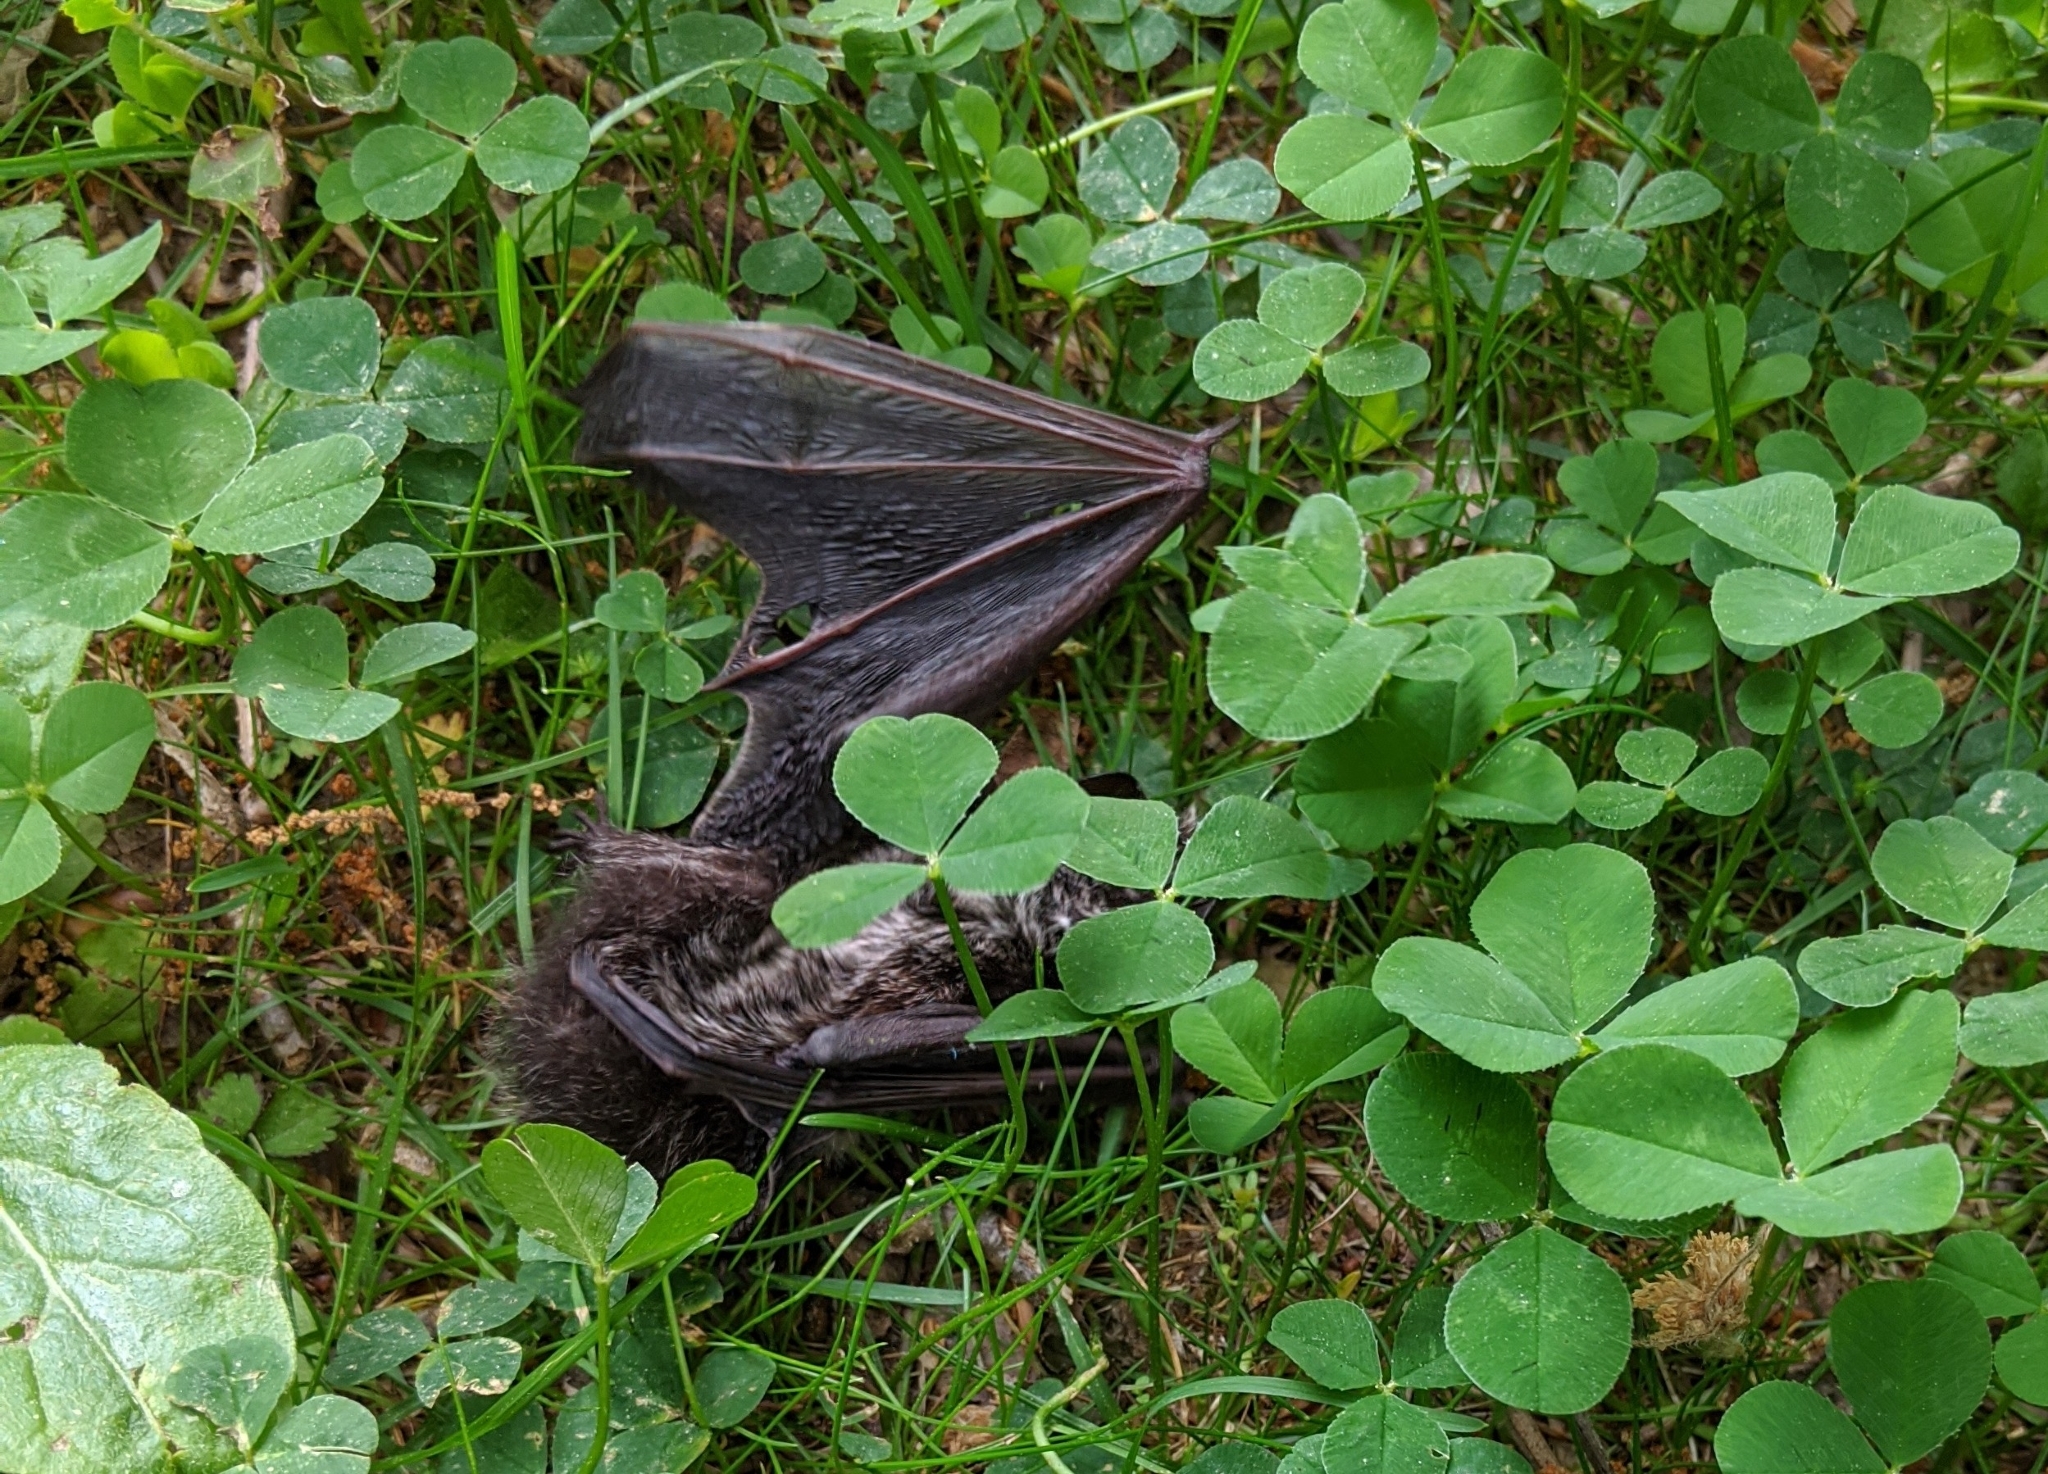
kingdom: Animalia
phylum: Chordata
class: Mammalia
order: Chiroptera
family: Vespertilionidae
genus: Lasionycteris
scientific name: Lasionycteris noctivagans
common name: Silver-haired bat
